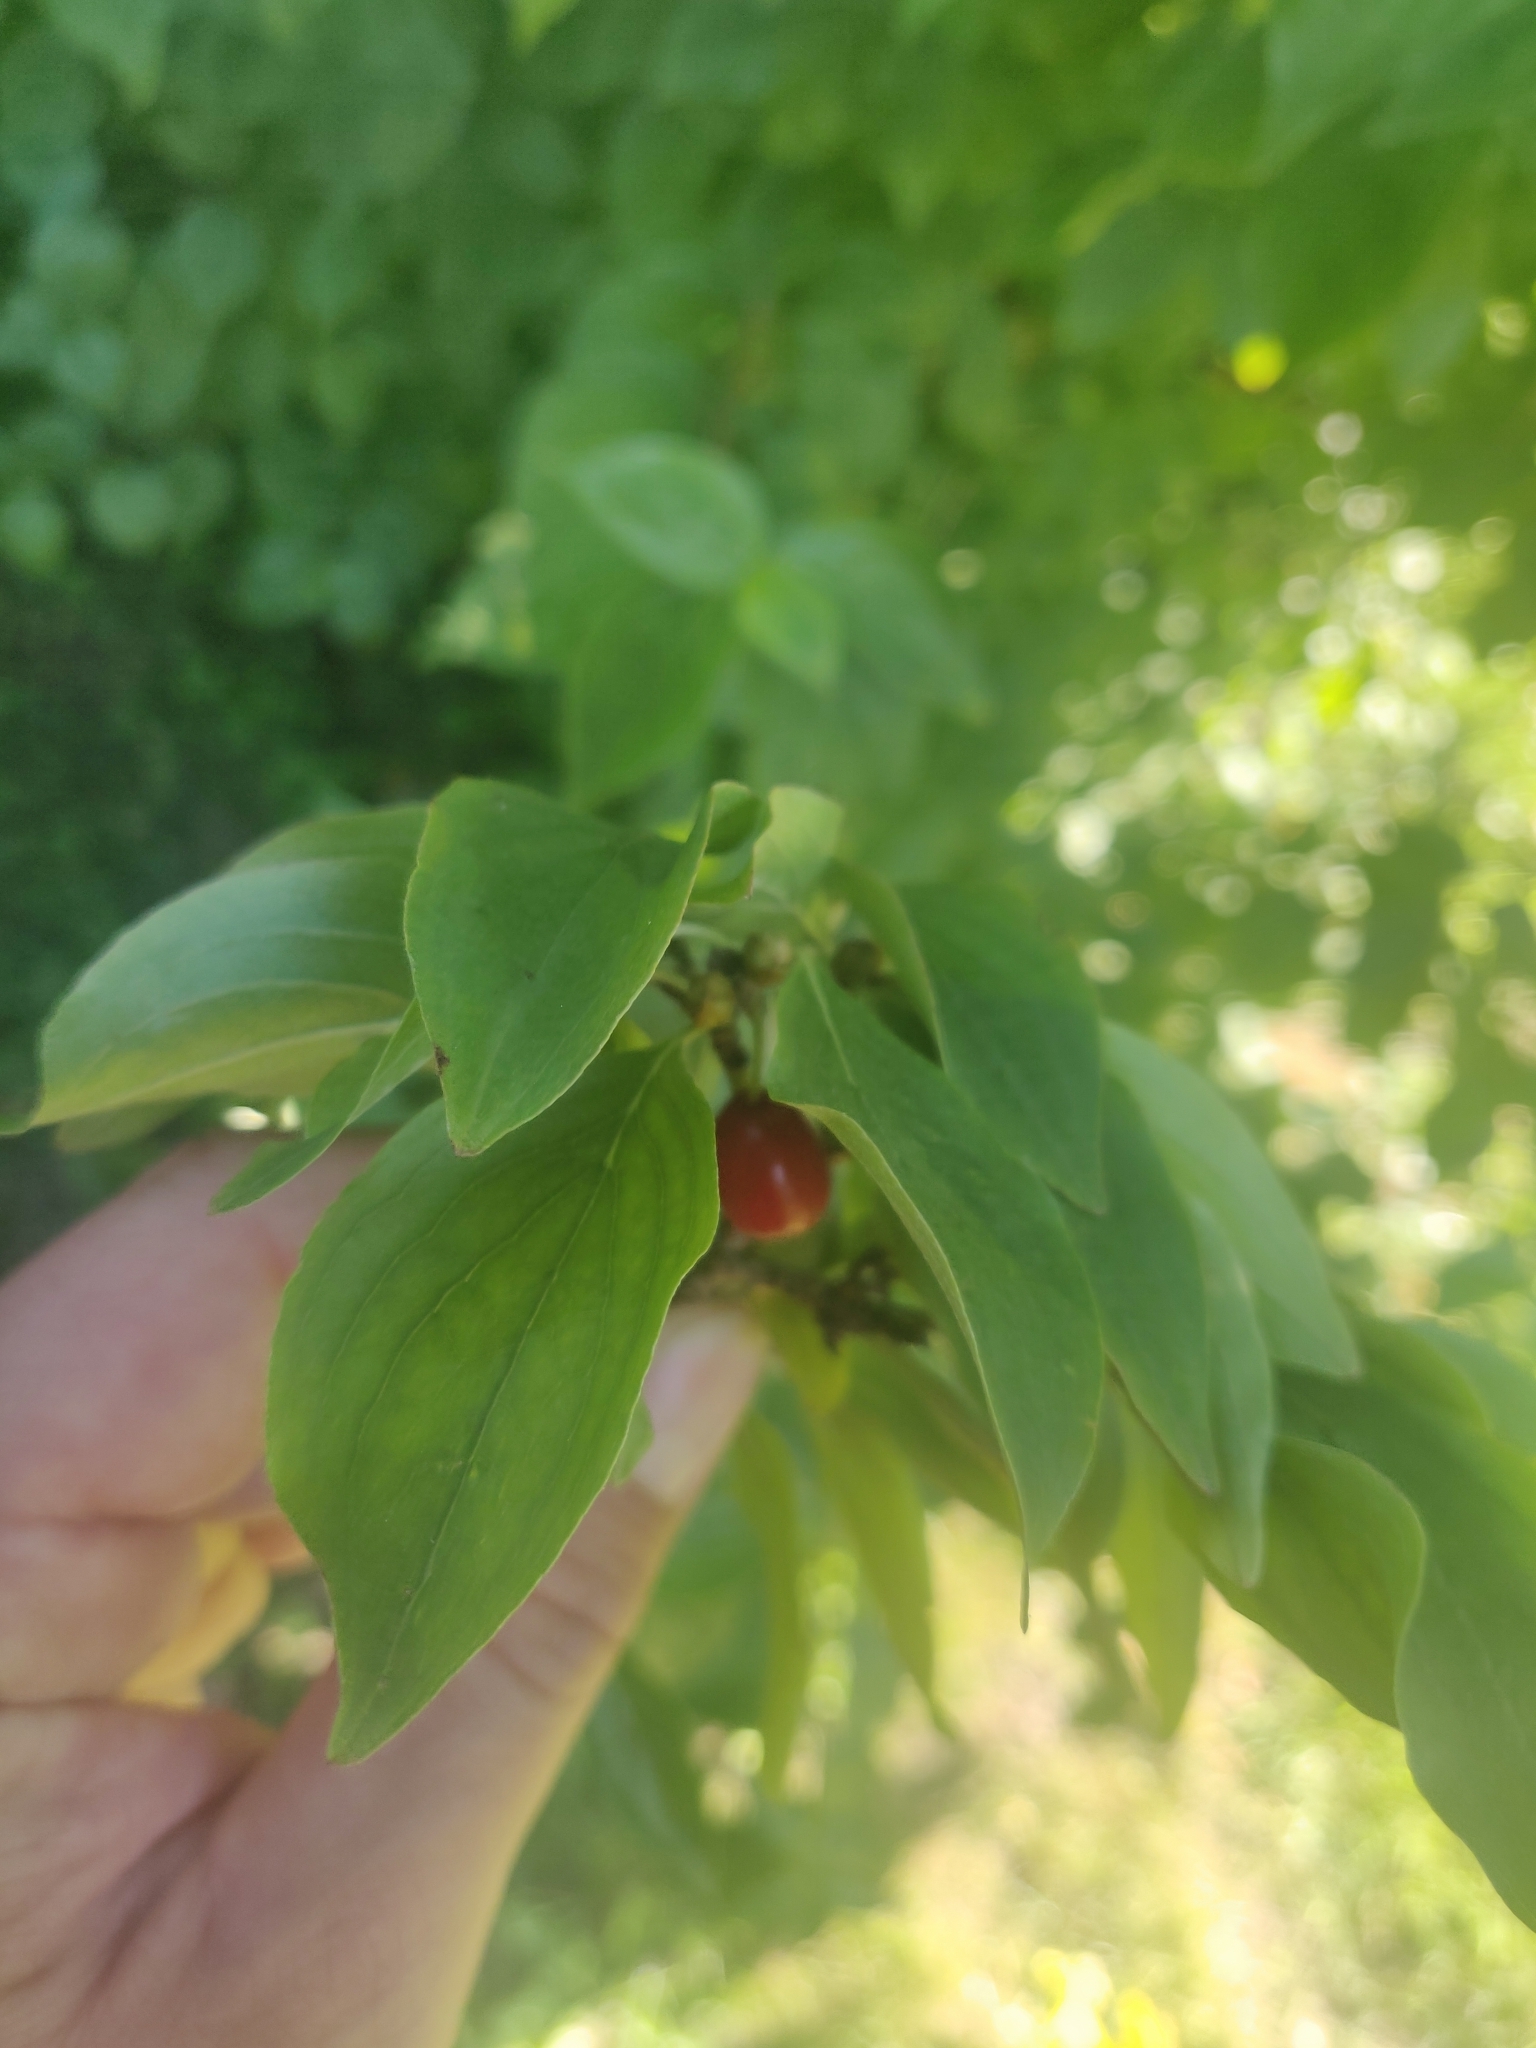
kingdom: Plantae
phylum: Tracheophyta
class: Magnoliopsida
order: Cornales
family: Cornaceae
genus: Cornus
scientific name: Cornus mas
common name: Cornelian-cherry
